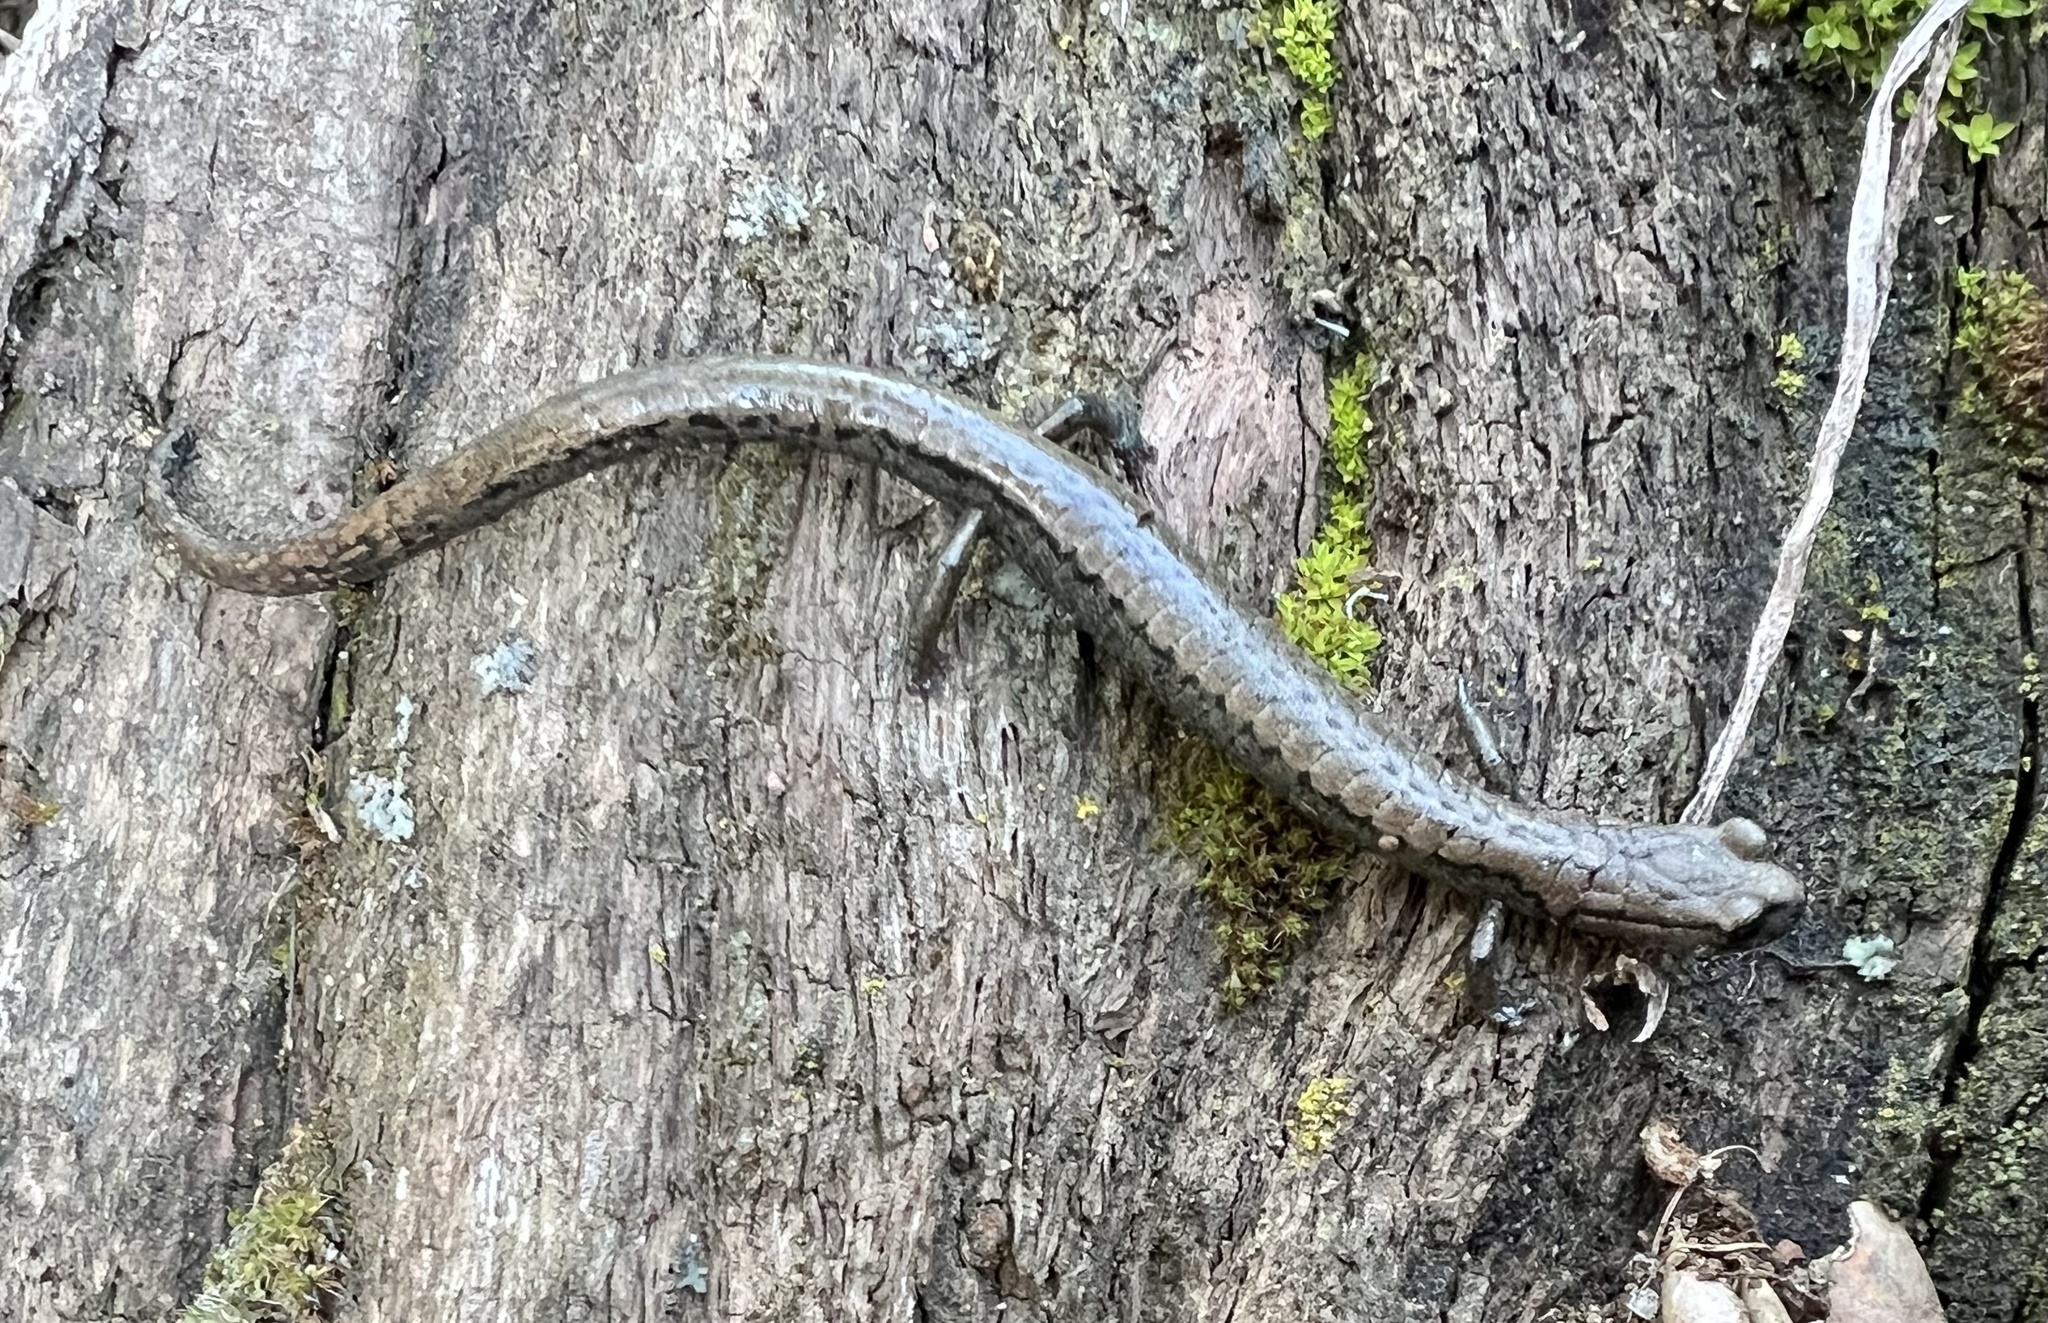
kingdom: Animalia
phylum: Chordata
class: Amphibia
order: Caudata
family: Plethodontidae
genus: Batrachoseps
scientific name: Batrachoseps stebbinsi
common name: Tehachapi slender salamander
